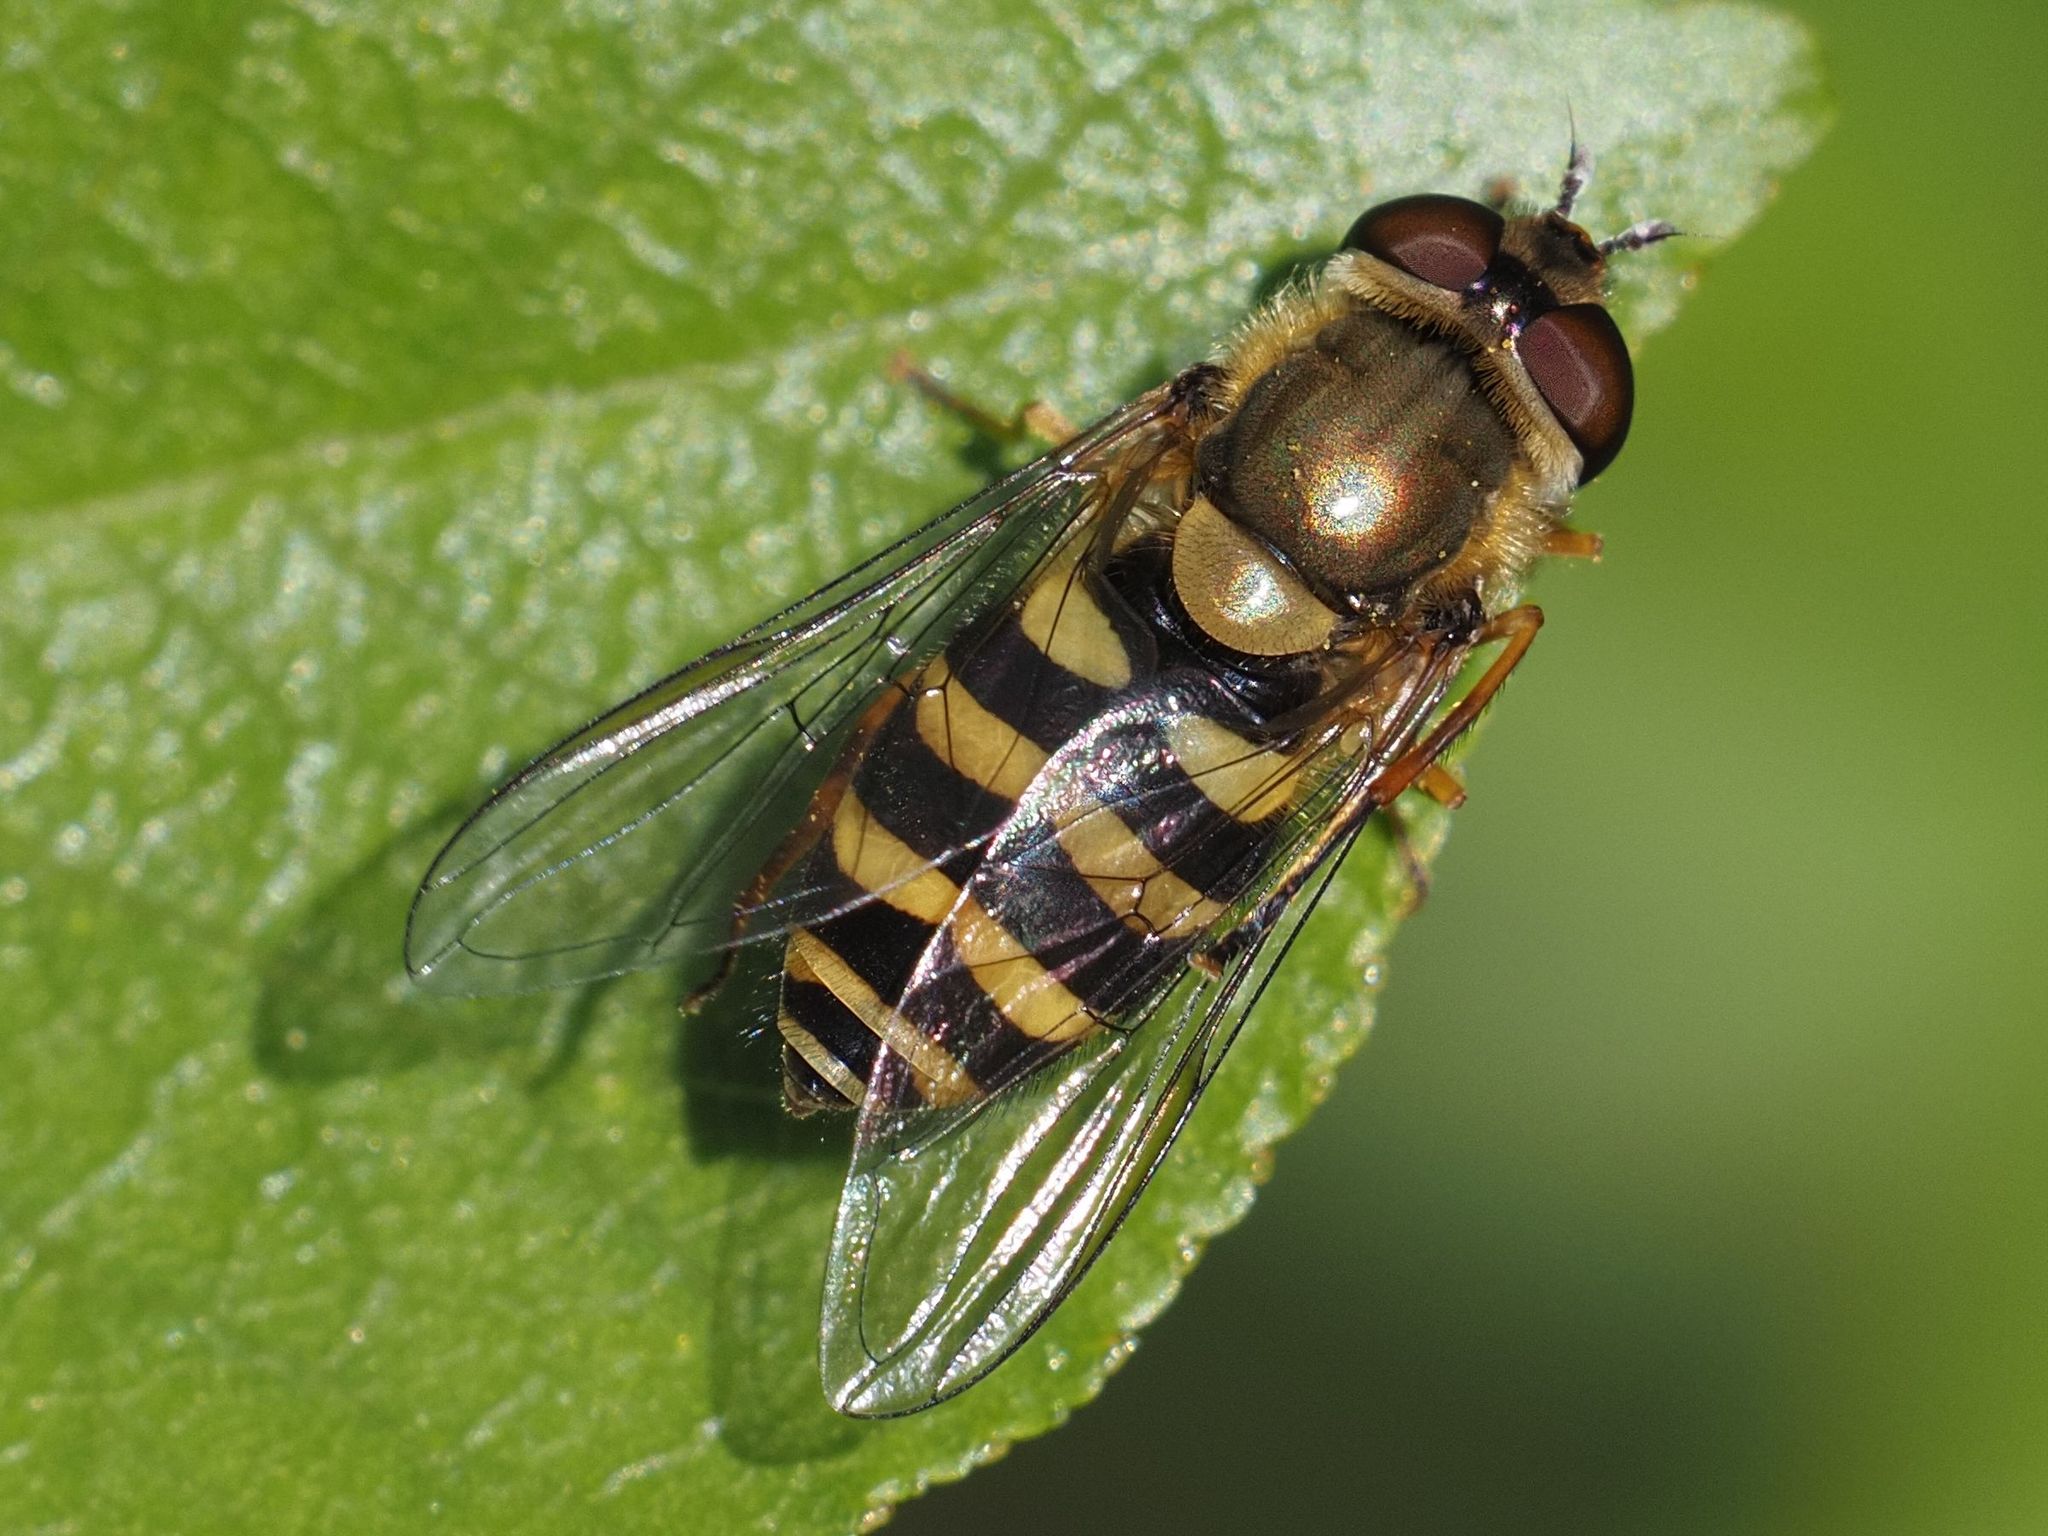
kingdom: Animalia
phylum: Arthropoda
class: Insecta
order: Diptera
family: Syrphidae
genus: Syrphus
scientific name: Syrphus
